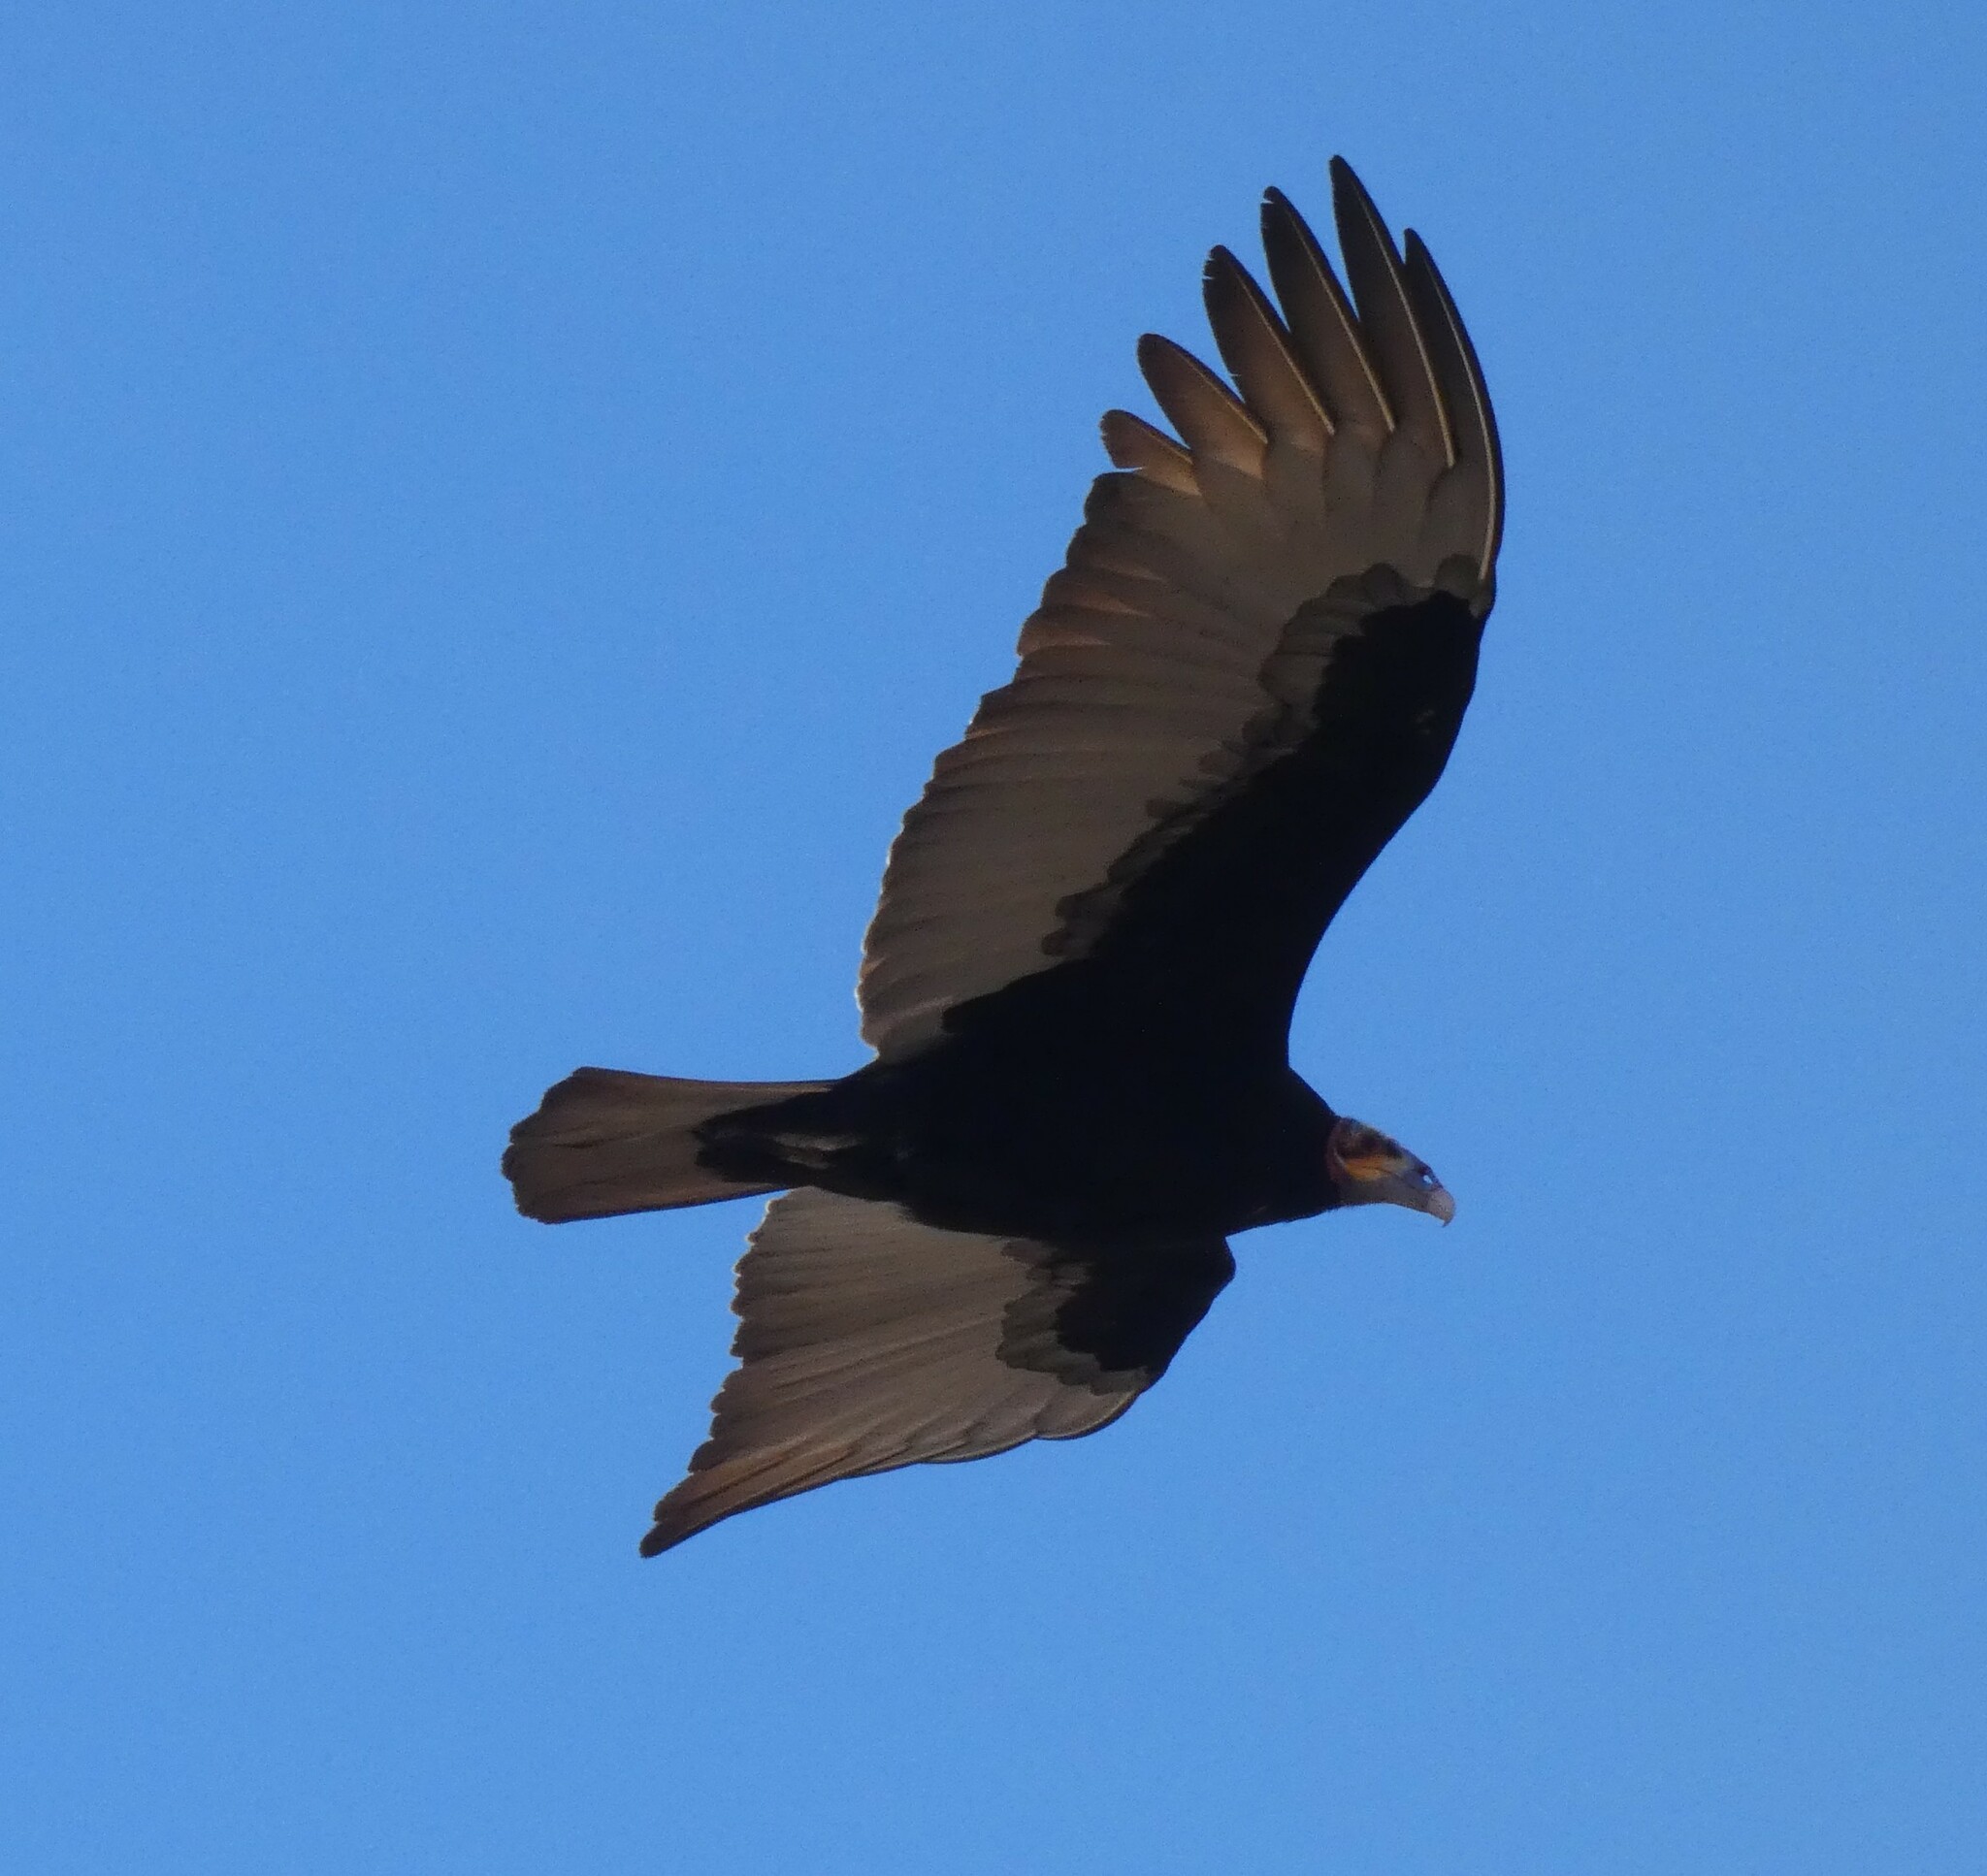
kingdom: Animalia
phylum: Chordata
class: Aves
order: Accipitriformes
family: Cathartidae
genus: Cathartes
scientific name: Cathartes burrovianus
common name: Lesser yellow-headed vulture
